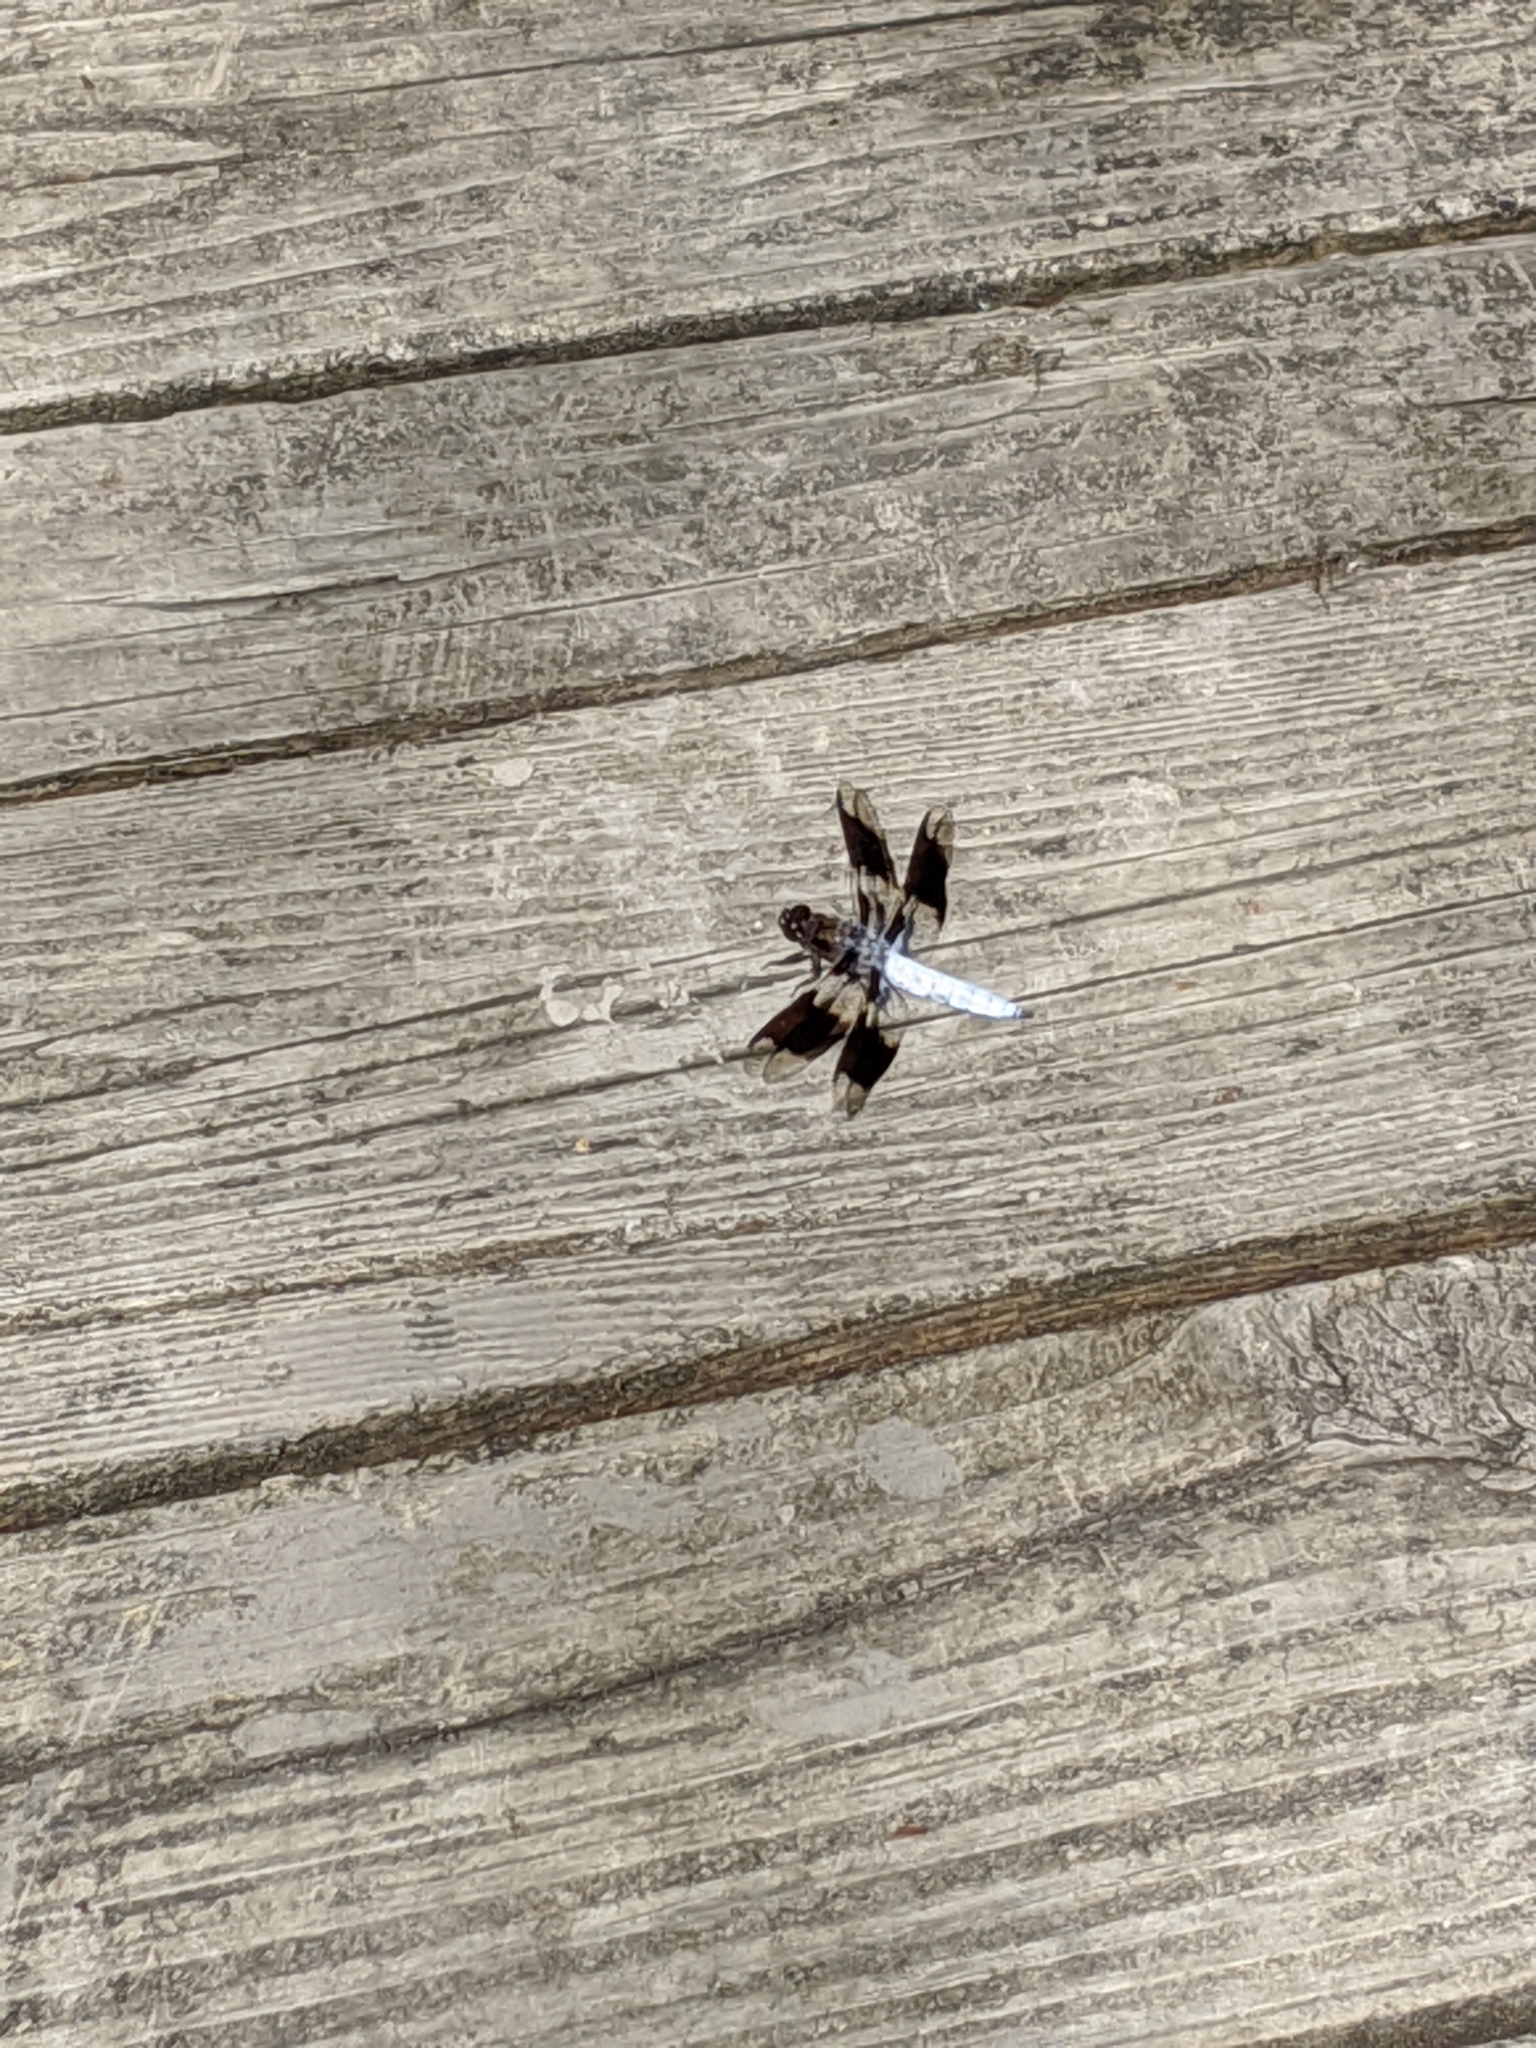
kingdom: Animalia
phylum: Arthropoda
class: Insecta
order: Odonata
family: Libellulidae
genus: Plathemis
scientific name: Plathemis lydia
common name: Common whitetail
